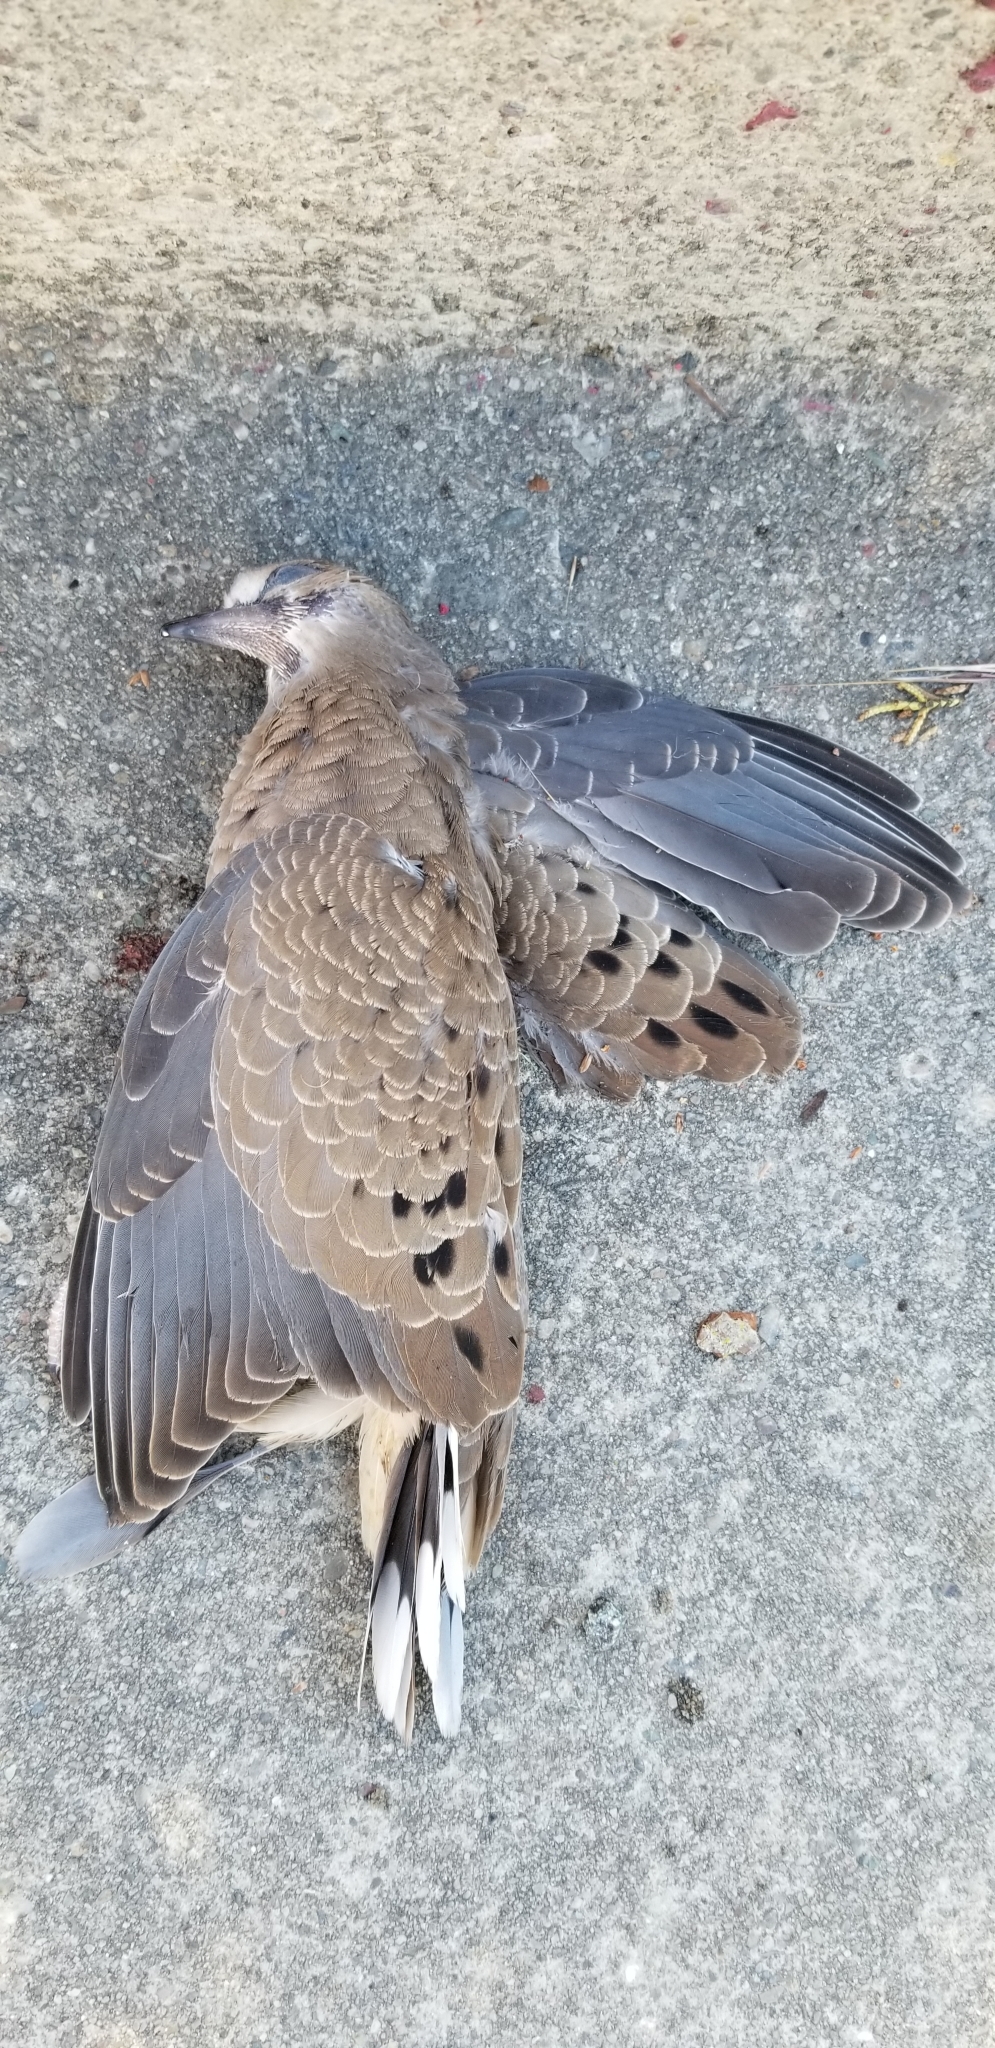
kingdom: Animalia
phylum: Chordata
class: Aves
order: Columbiformes
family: Columbidae
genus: Zenaida
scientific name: Zenaida macroura
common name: Mourning dove
